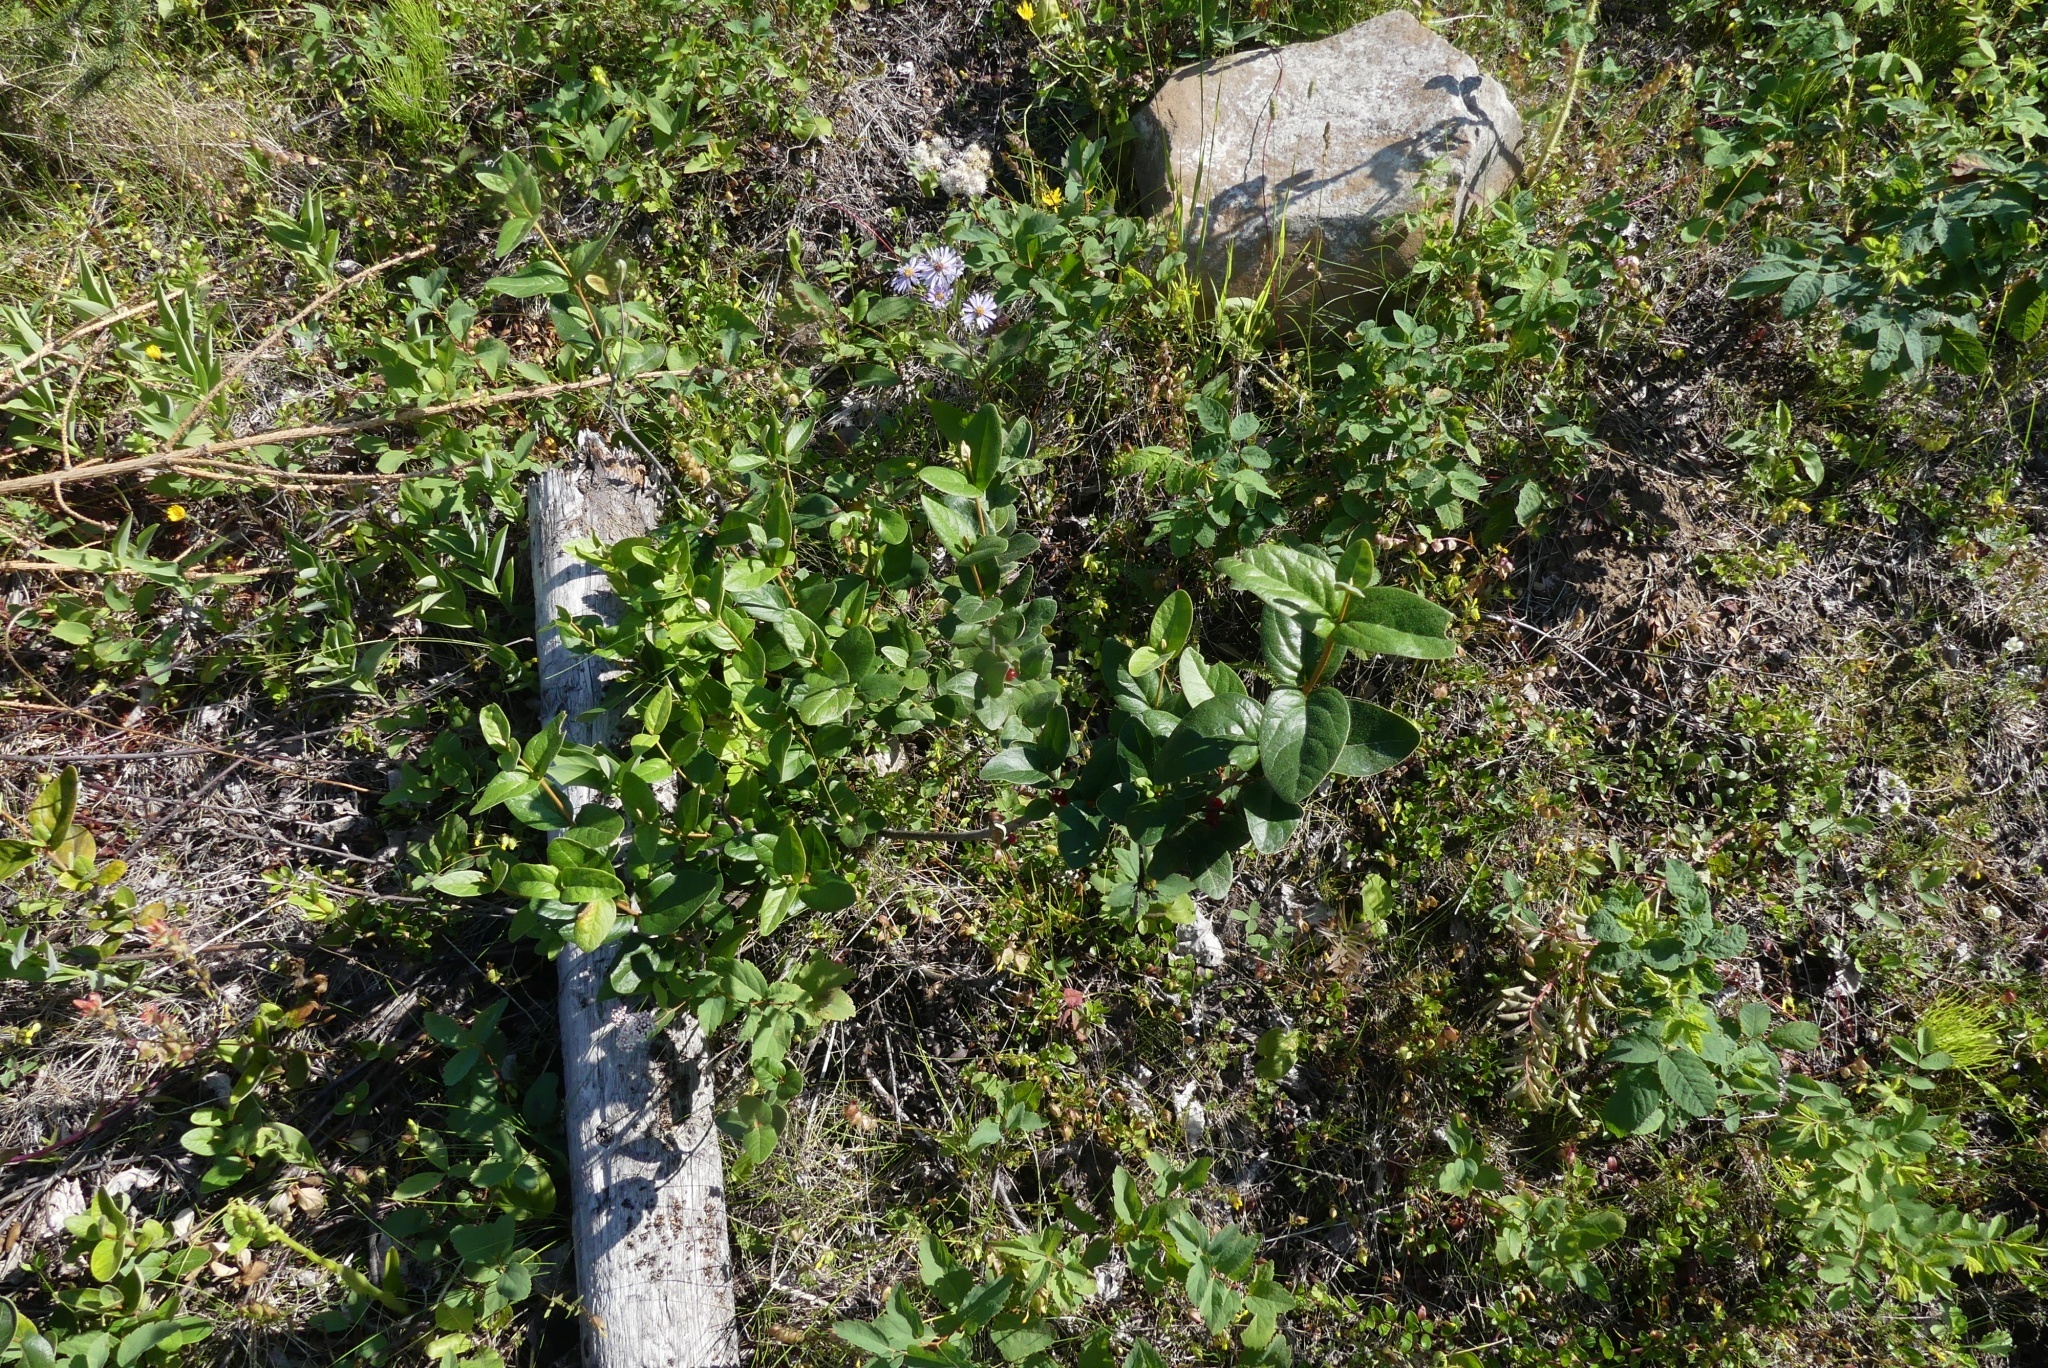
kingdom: Plantae
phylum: Tracheophyta
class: Magnoliopsida
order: Rosales
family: Elaeagnaceae
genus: Shepherdia
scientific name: Shepherdia canadensis
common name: Soapberry
